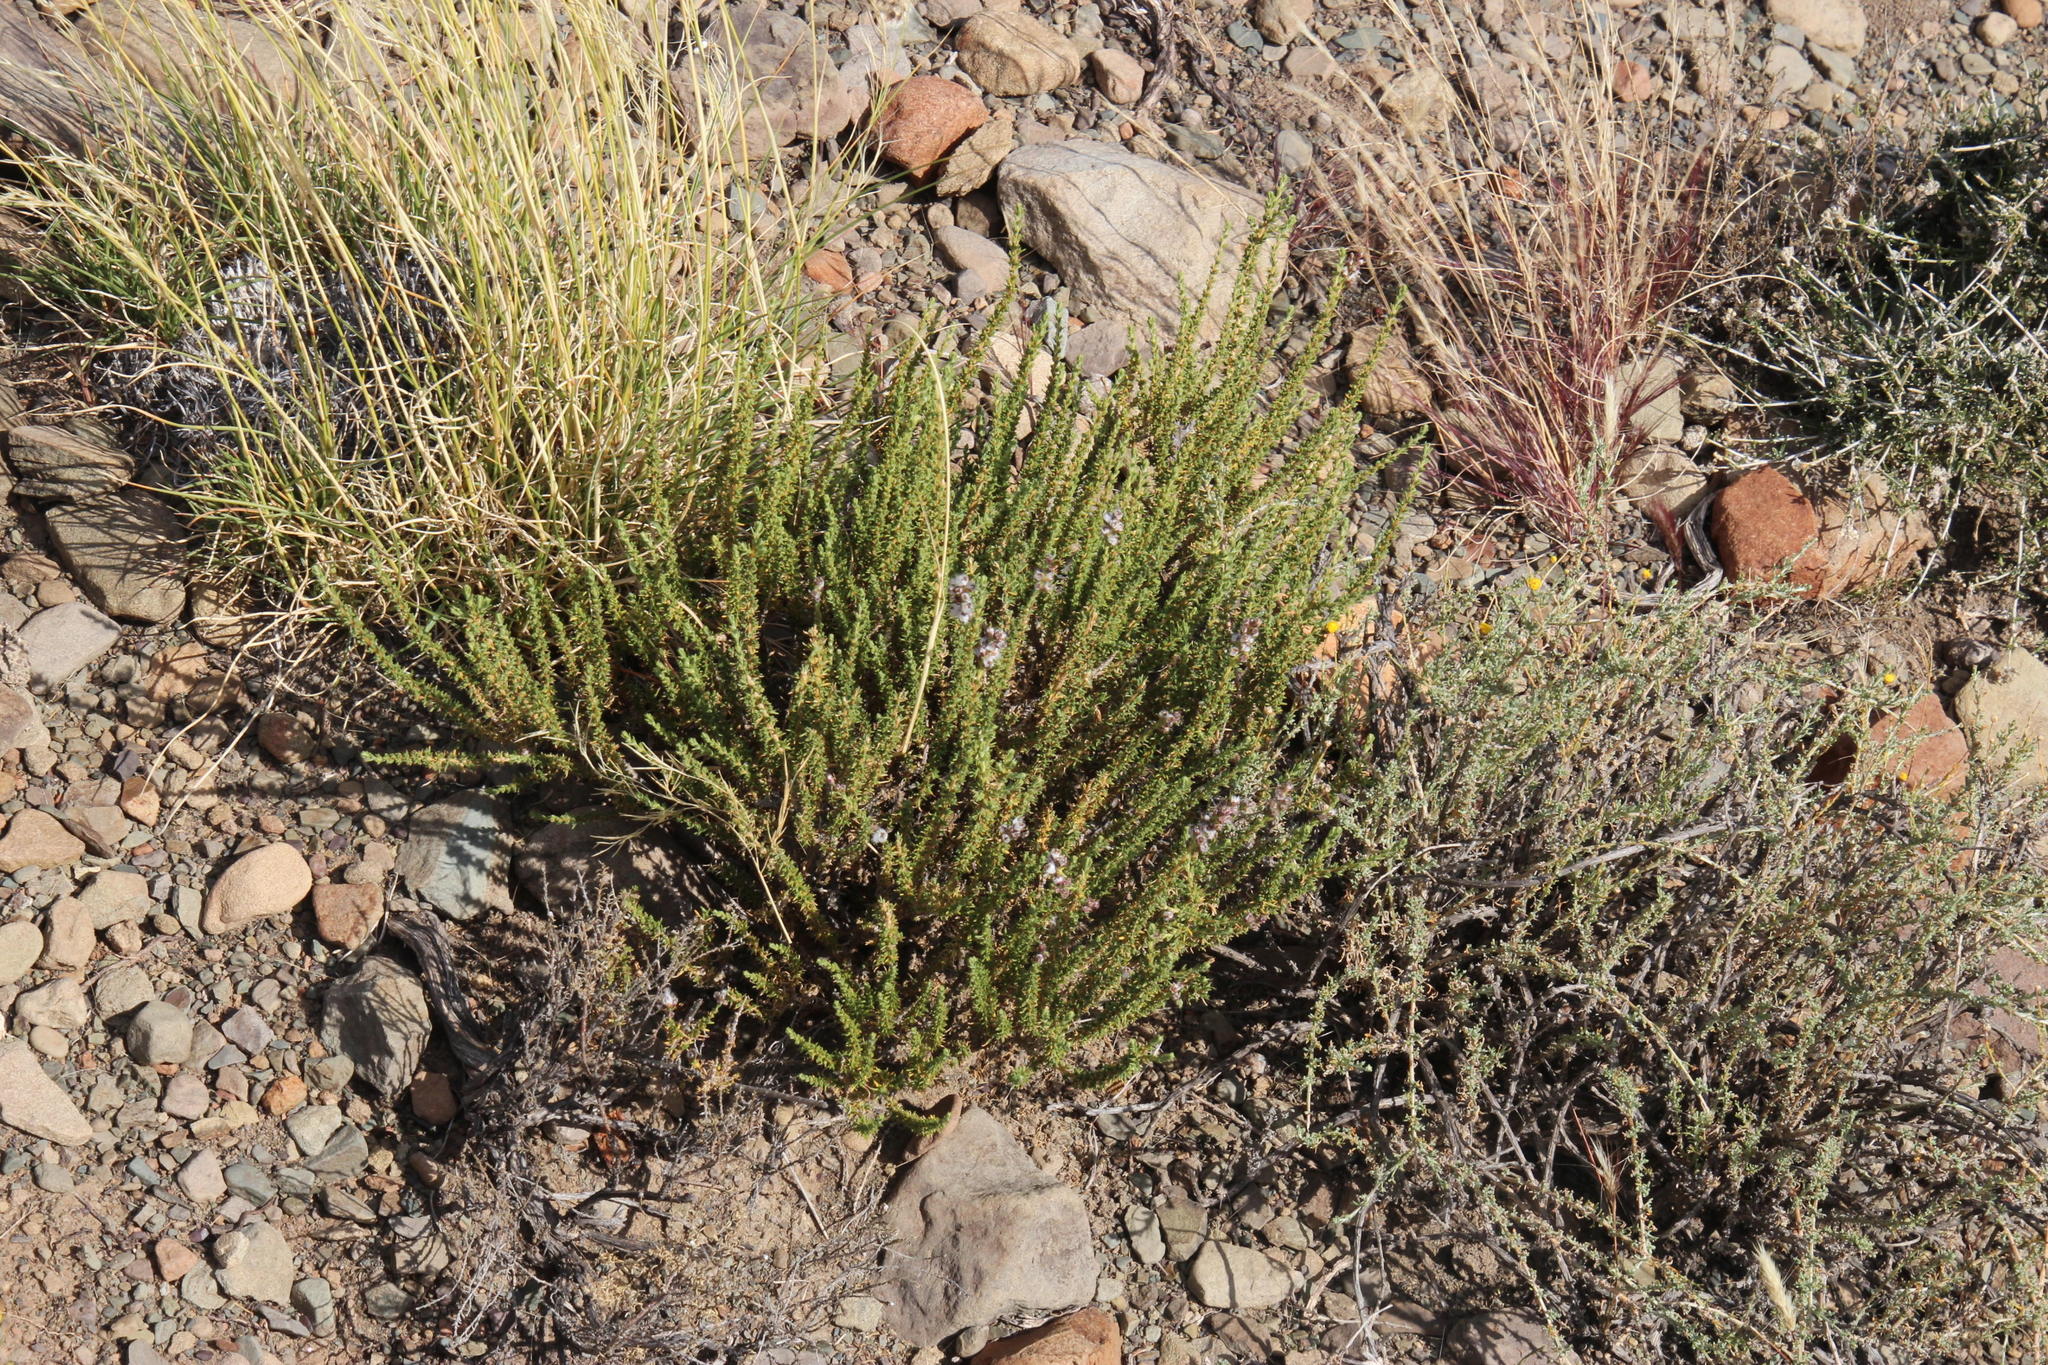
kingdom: Plantae
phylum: Tracheophyta
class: Magnoliopsida
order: Asterales
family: Asteraceae
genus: Eriocephalus
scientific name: Eriocephalus ericoides
